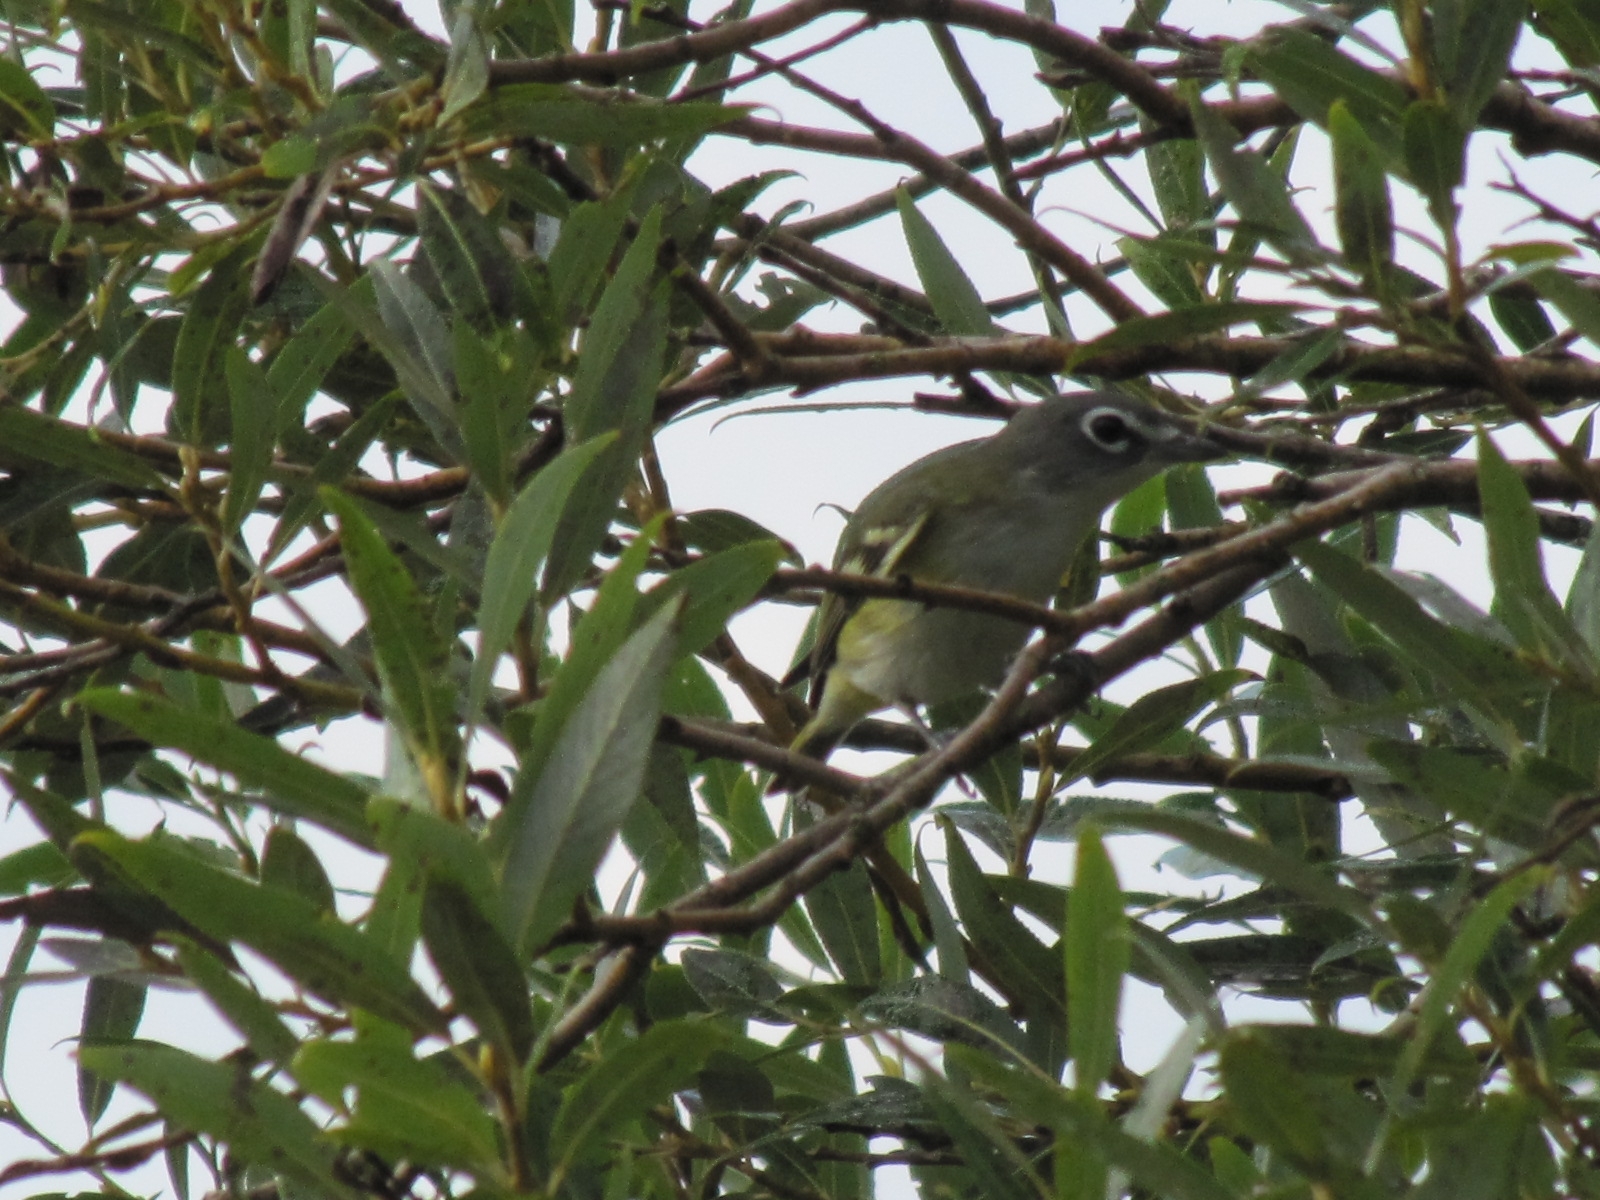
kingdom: Animalia
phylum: Chordata
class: Aves
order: Passeriformes
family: Vireonidae
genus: Vireo
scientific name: Vireo solitarius
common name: Blue-headed vireo
